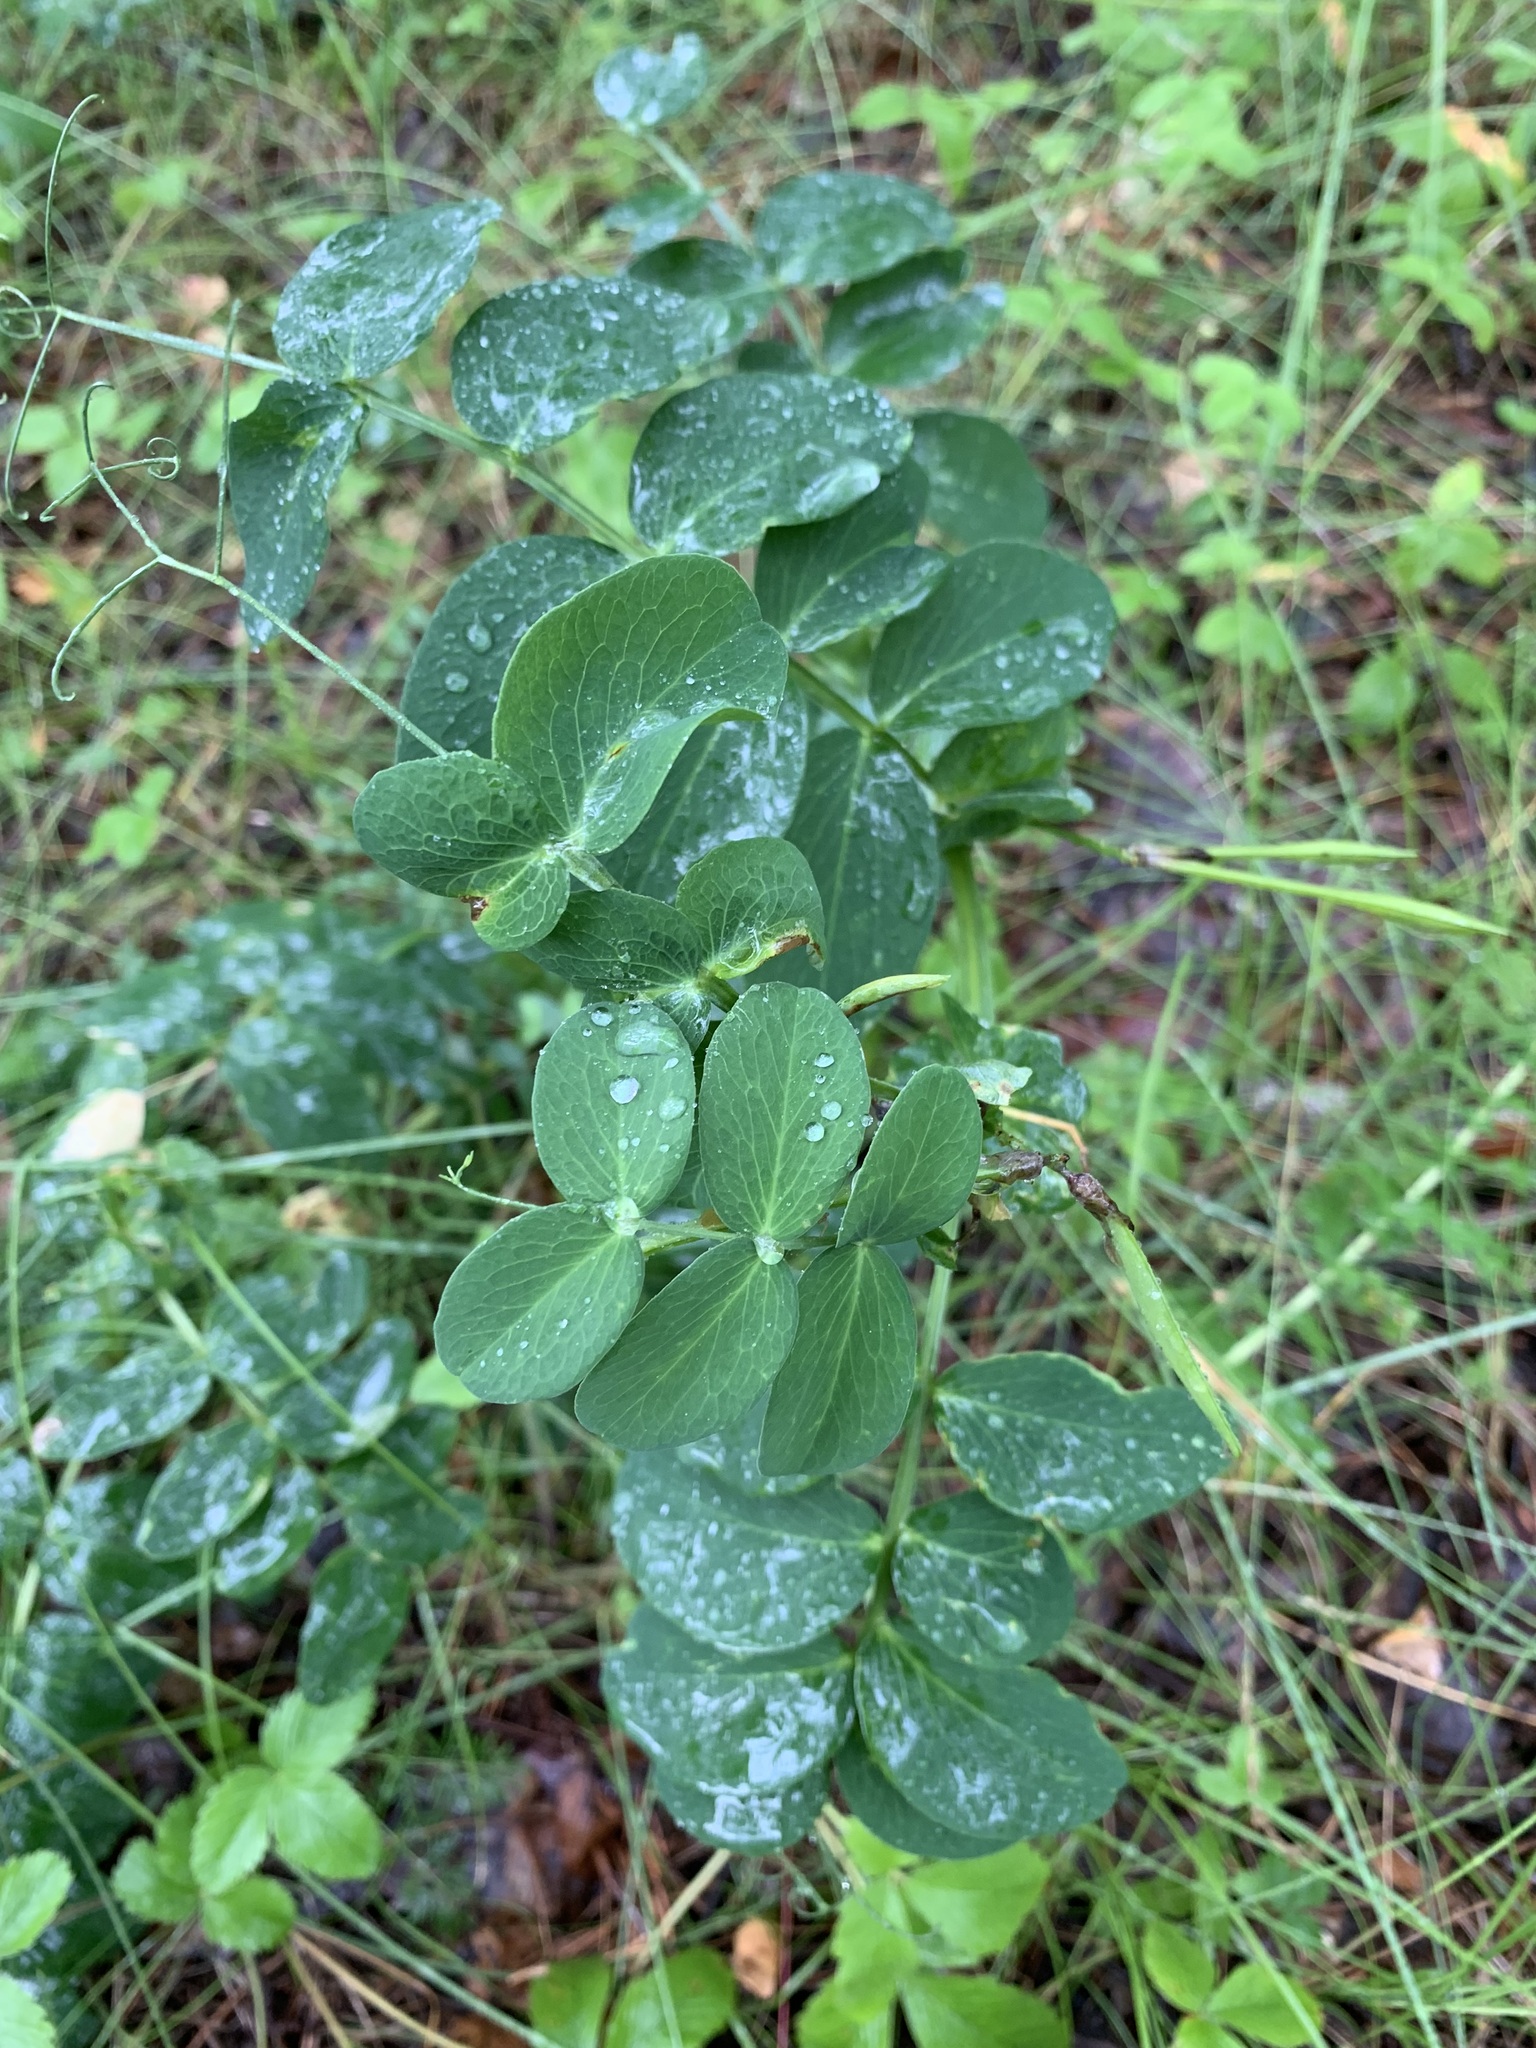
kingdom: Plantae
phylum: Tracheophyta
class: Magnoliopsida
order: Fabales
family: Fabaceae
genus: Lathyrus
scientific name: Lathyrus pisiformis
